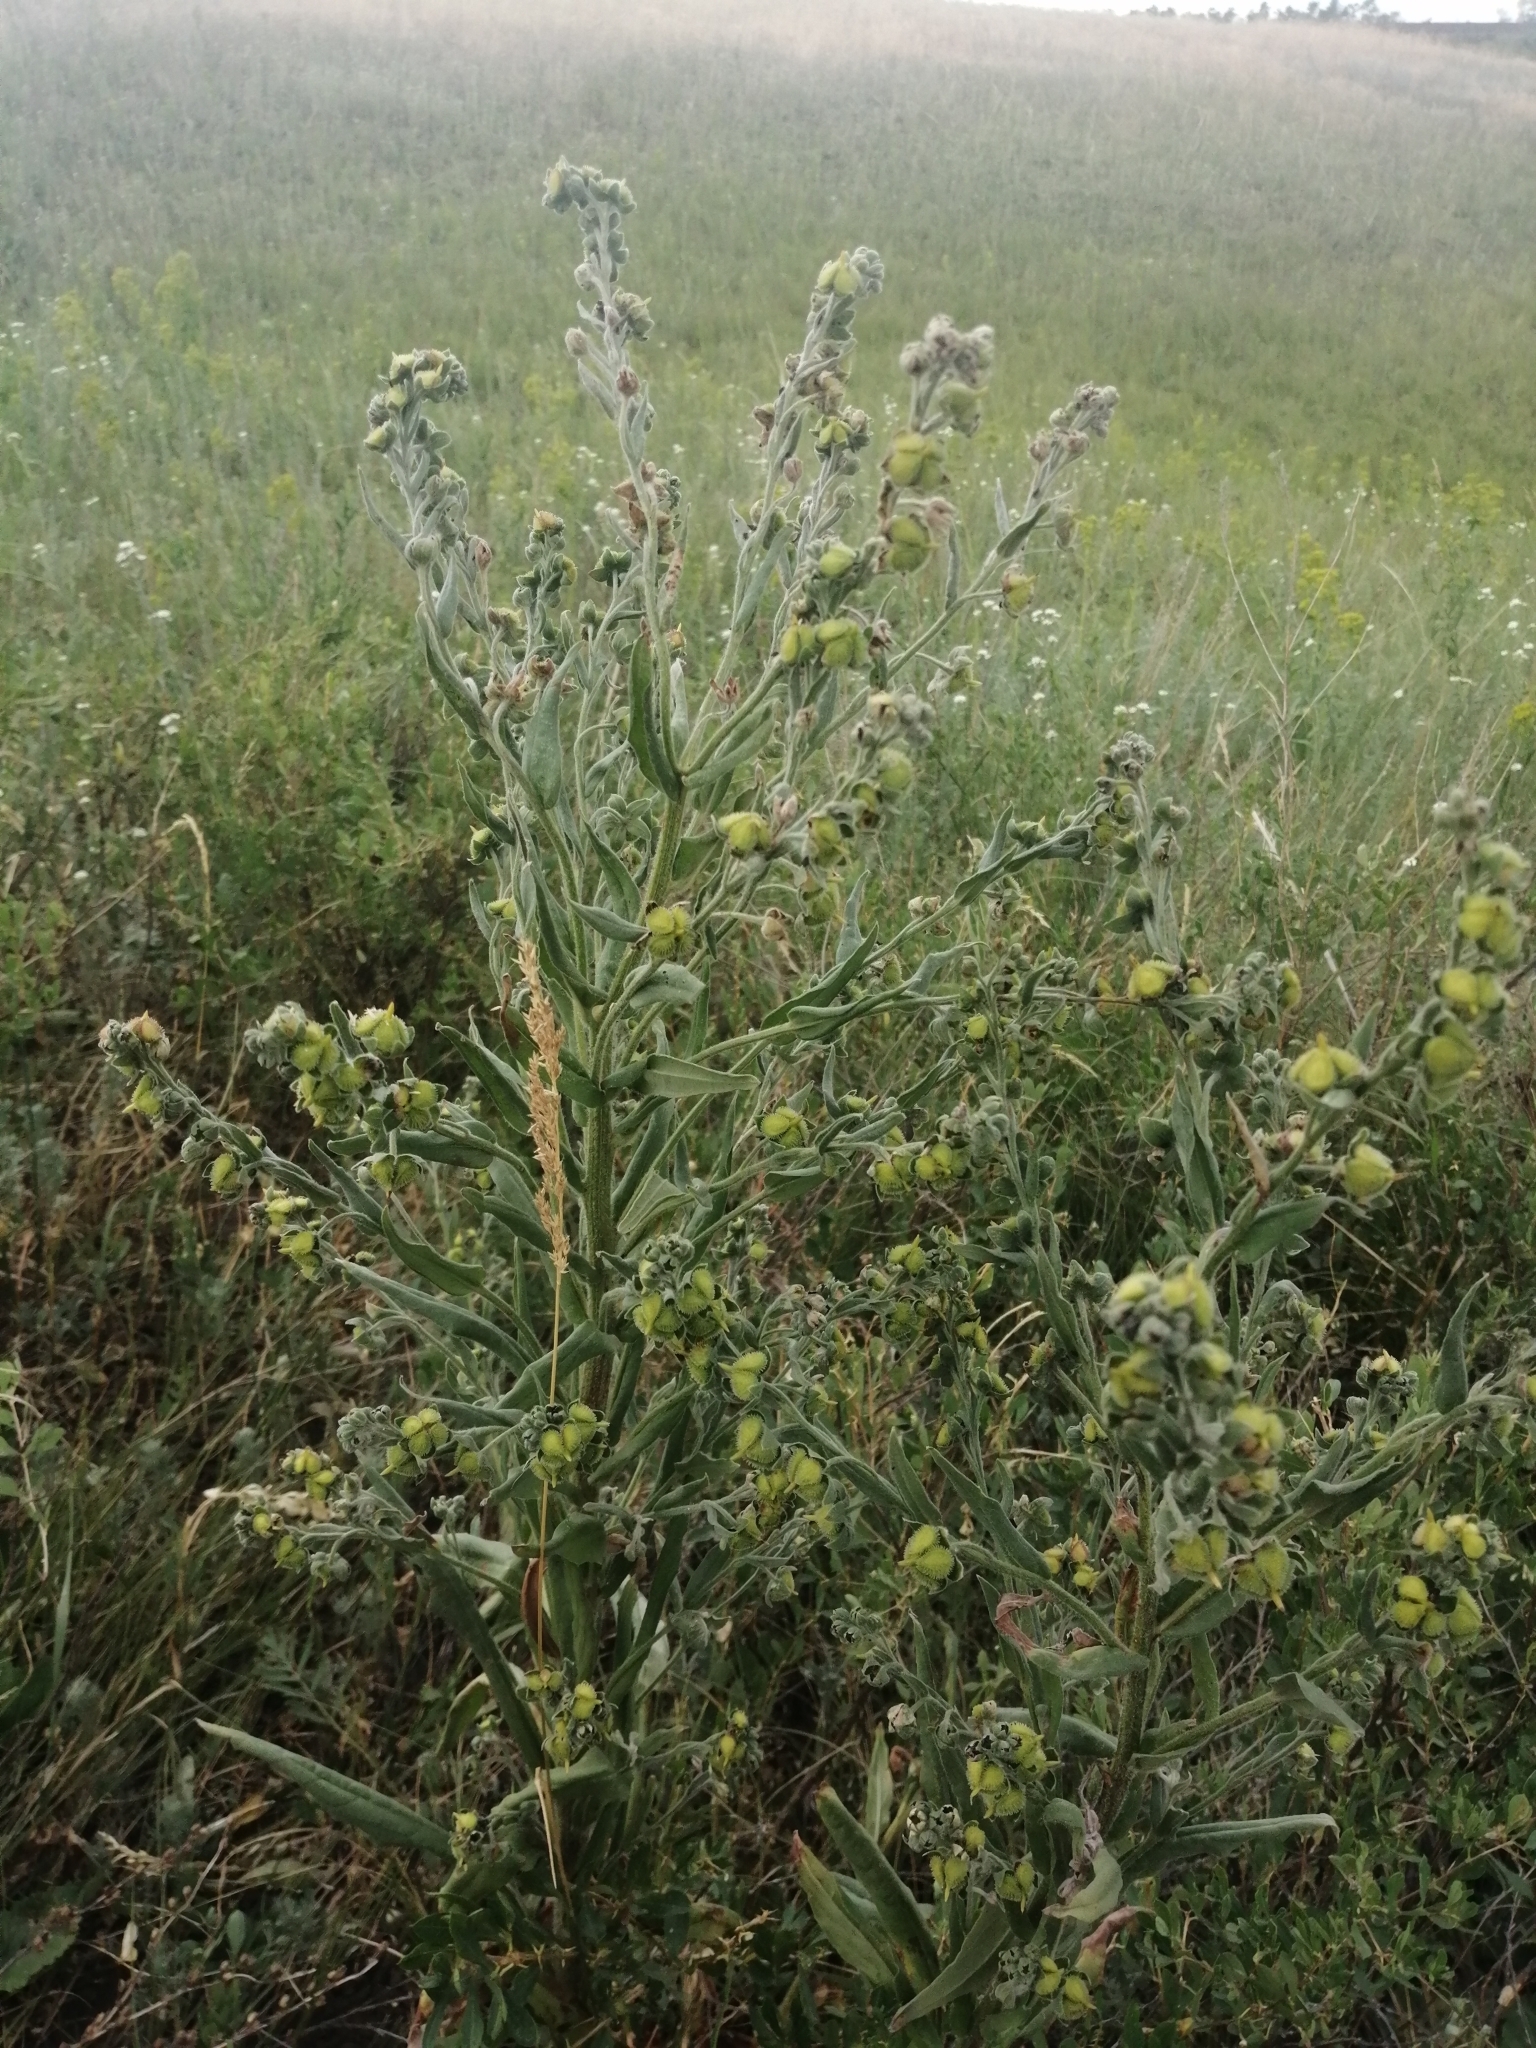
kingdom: Plantae
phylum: Tracheophyta
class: Magnoliopsida
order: Boraginales
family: Boraginaceae
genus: Cynoglossum
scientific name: Cynoglossum officinale
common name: Hound's-tongue
